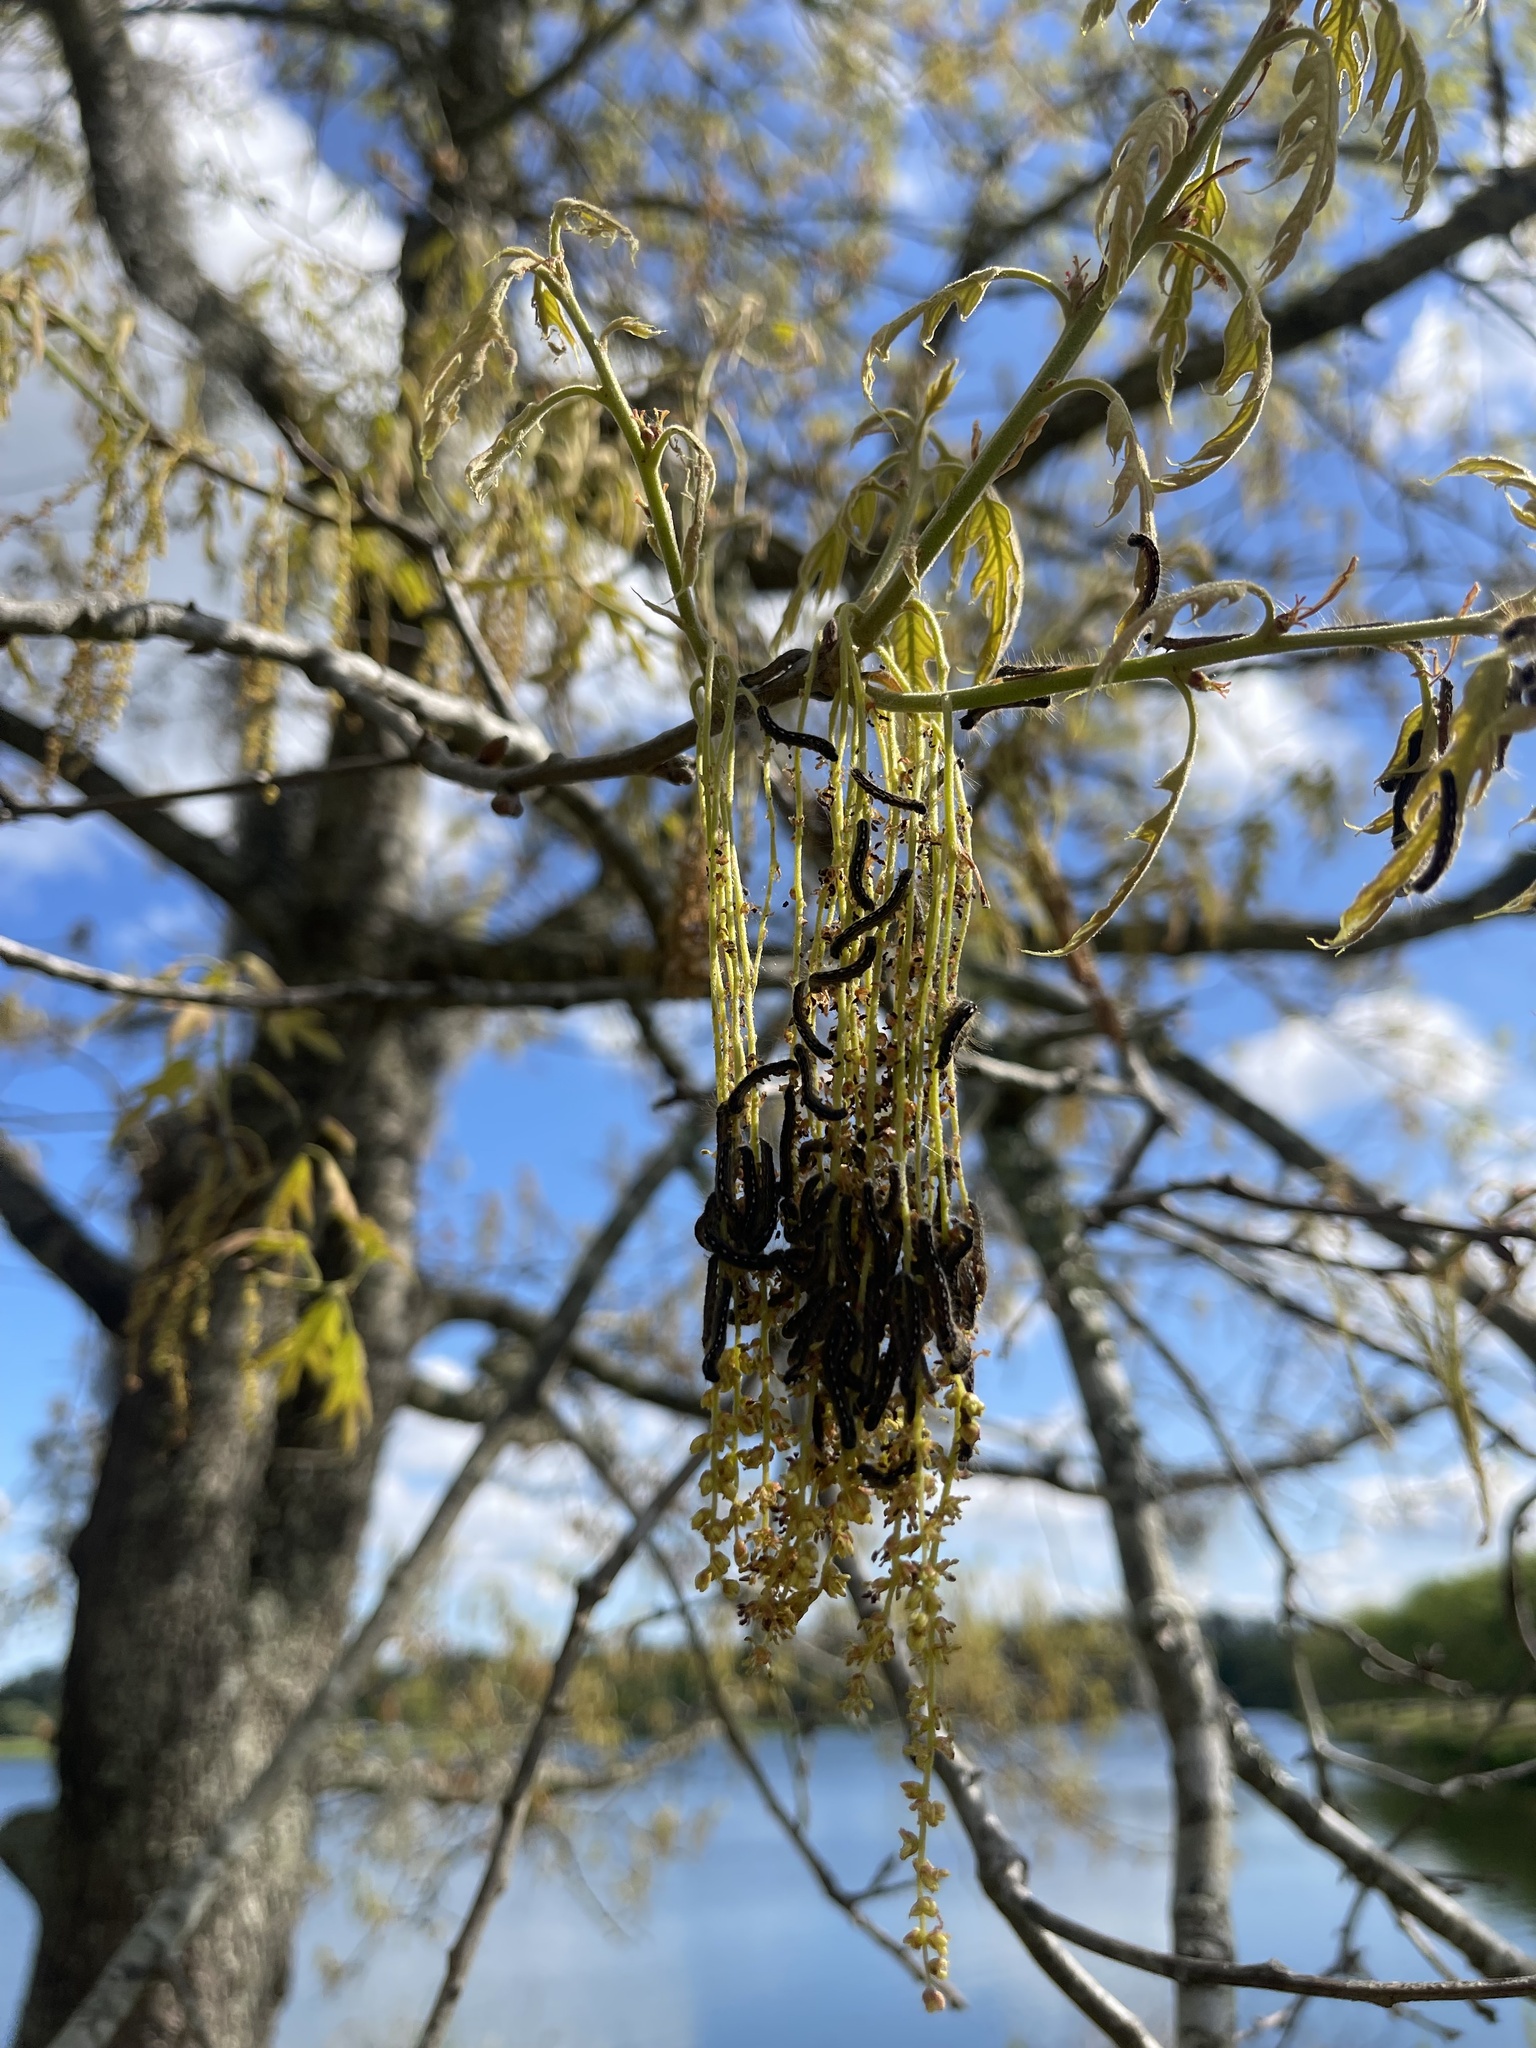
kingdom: Animalia
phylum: Arthropoda
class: Insecta
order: Lepidoptera
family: Lasiocampidae
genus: Malacosoma
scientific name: Malacosoma disstria
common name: Forest tent caterpillar
